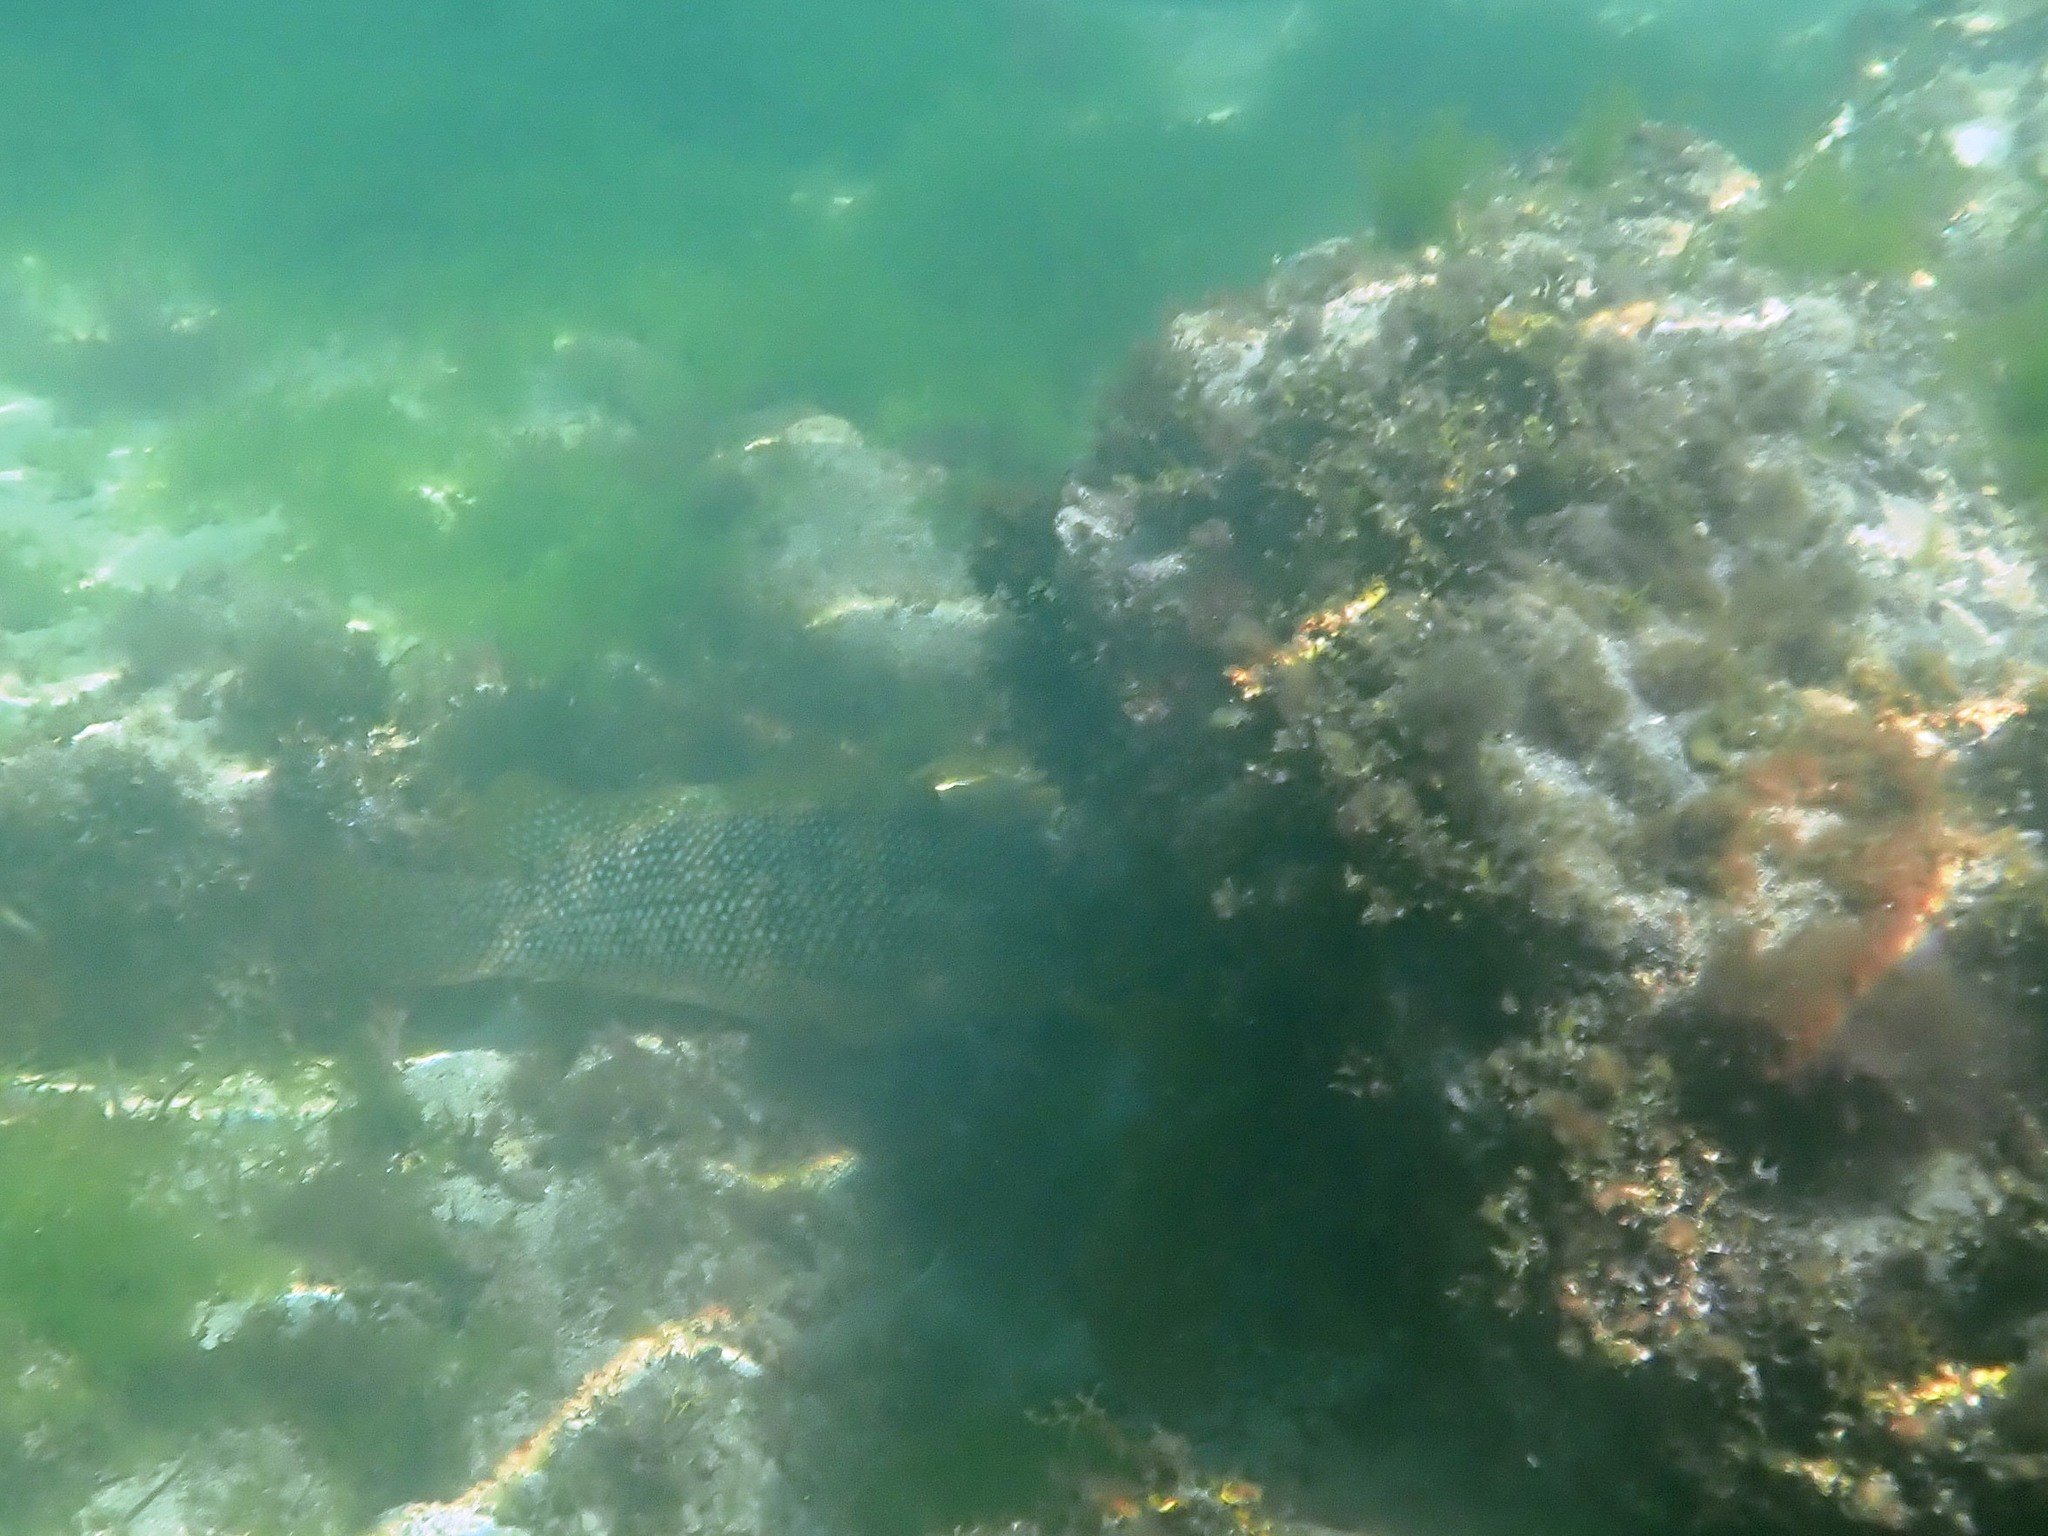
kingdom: Animalia
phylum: Chordata
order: Perciformes
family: Labridae
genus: Labrus
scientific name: Labrus bergylta
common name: Ballan wrasse
